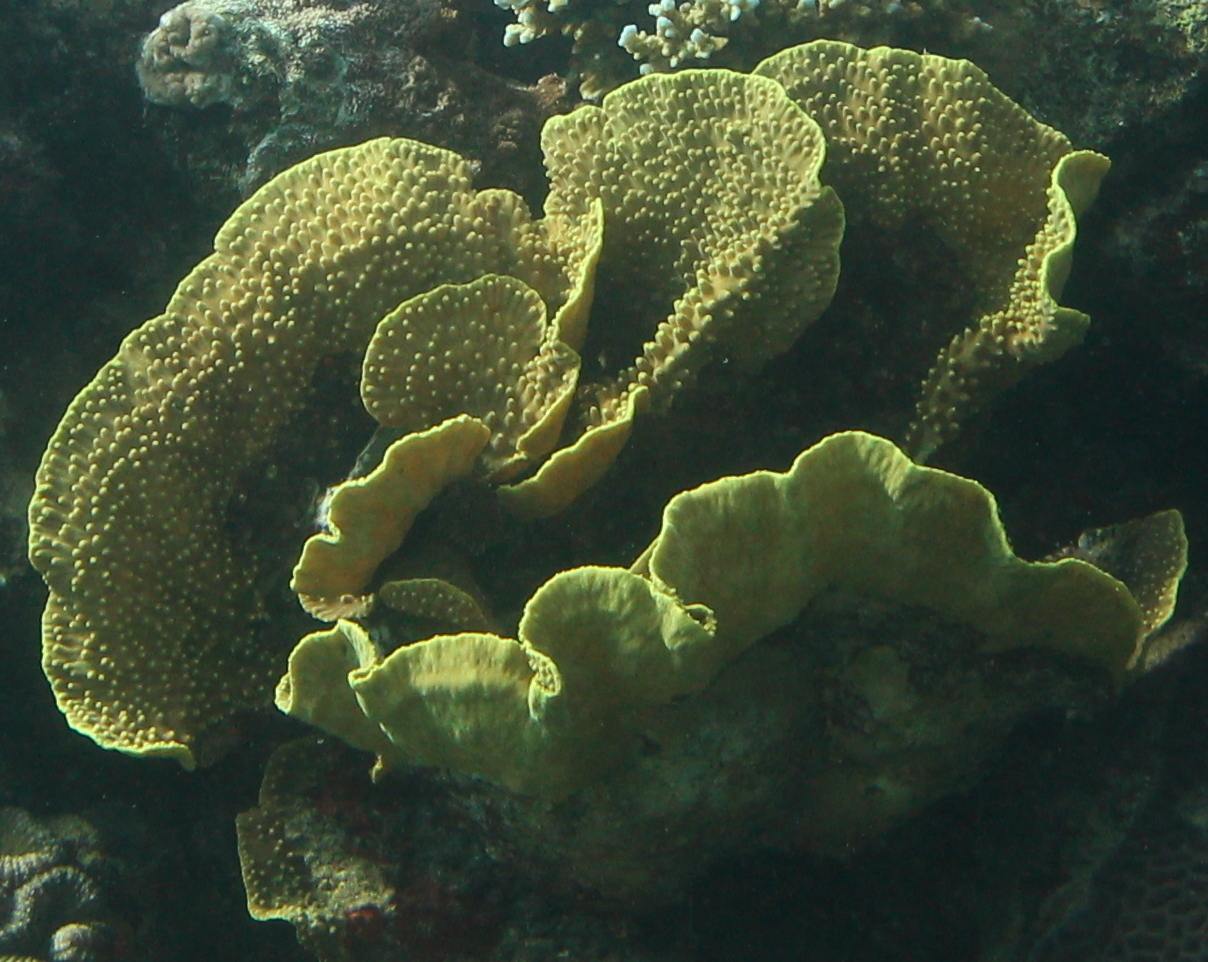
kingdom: Animalia
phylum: Cnidaria
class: Anthozoa
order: Scleractinia
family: Dendrophylliidae
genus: Turbinaria
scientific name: Turbinaria reniformis
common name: Disc coral
